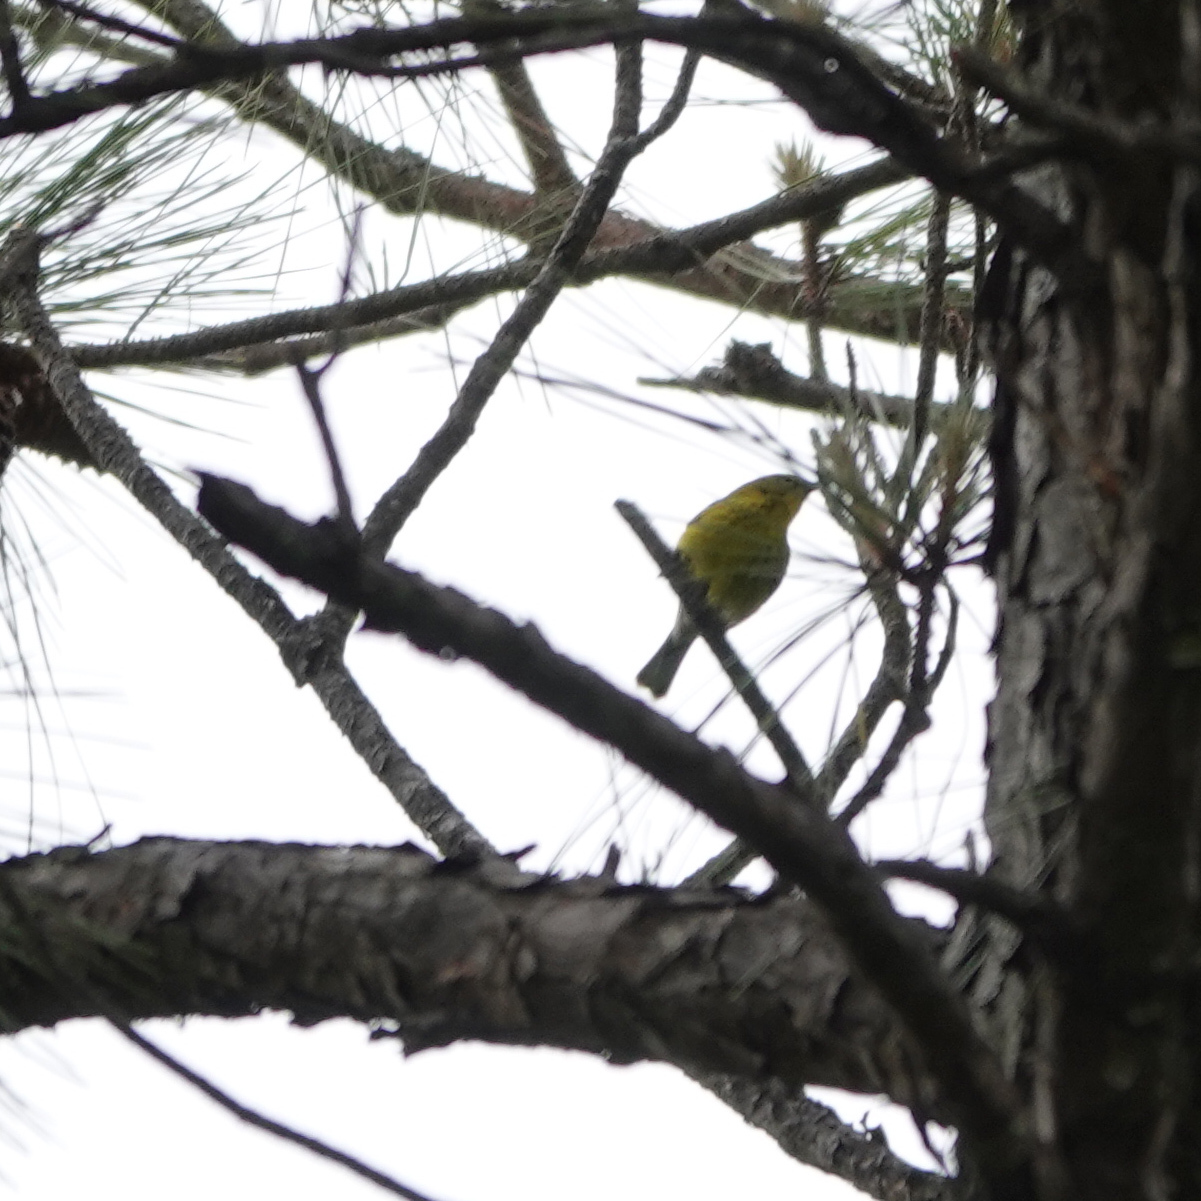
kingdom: Animalia
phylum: Chordata
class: Aves
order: Passeriformes
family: Parulidae
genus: Setophaga
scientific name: Setophaga pinus
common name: Pine warbler
